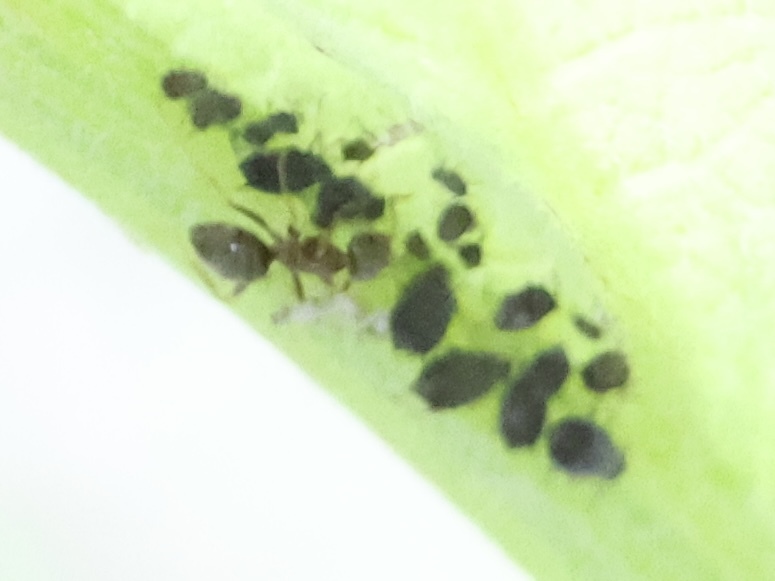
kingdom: Animalia
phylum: Arthropoda
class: Insecta
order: Hymenoptera
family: Formicidae
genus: Lasius
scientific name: Lasius americanus
